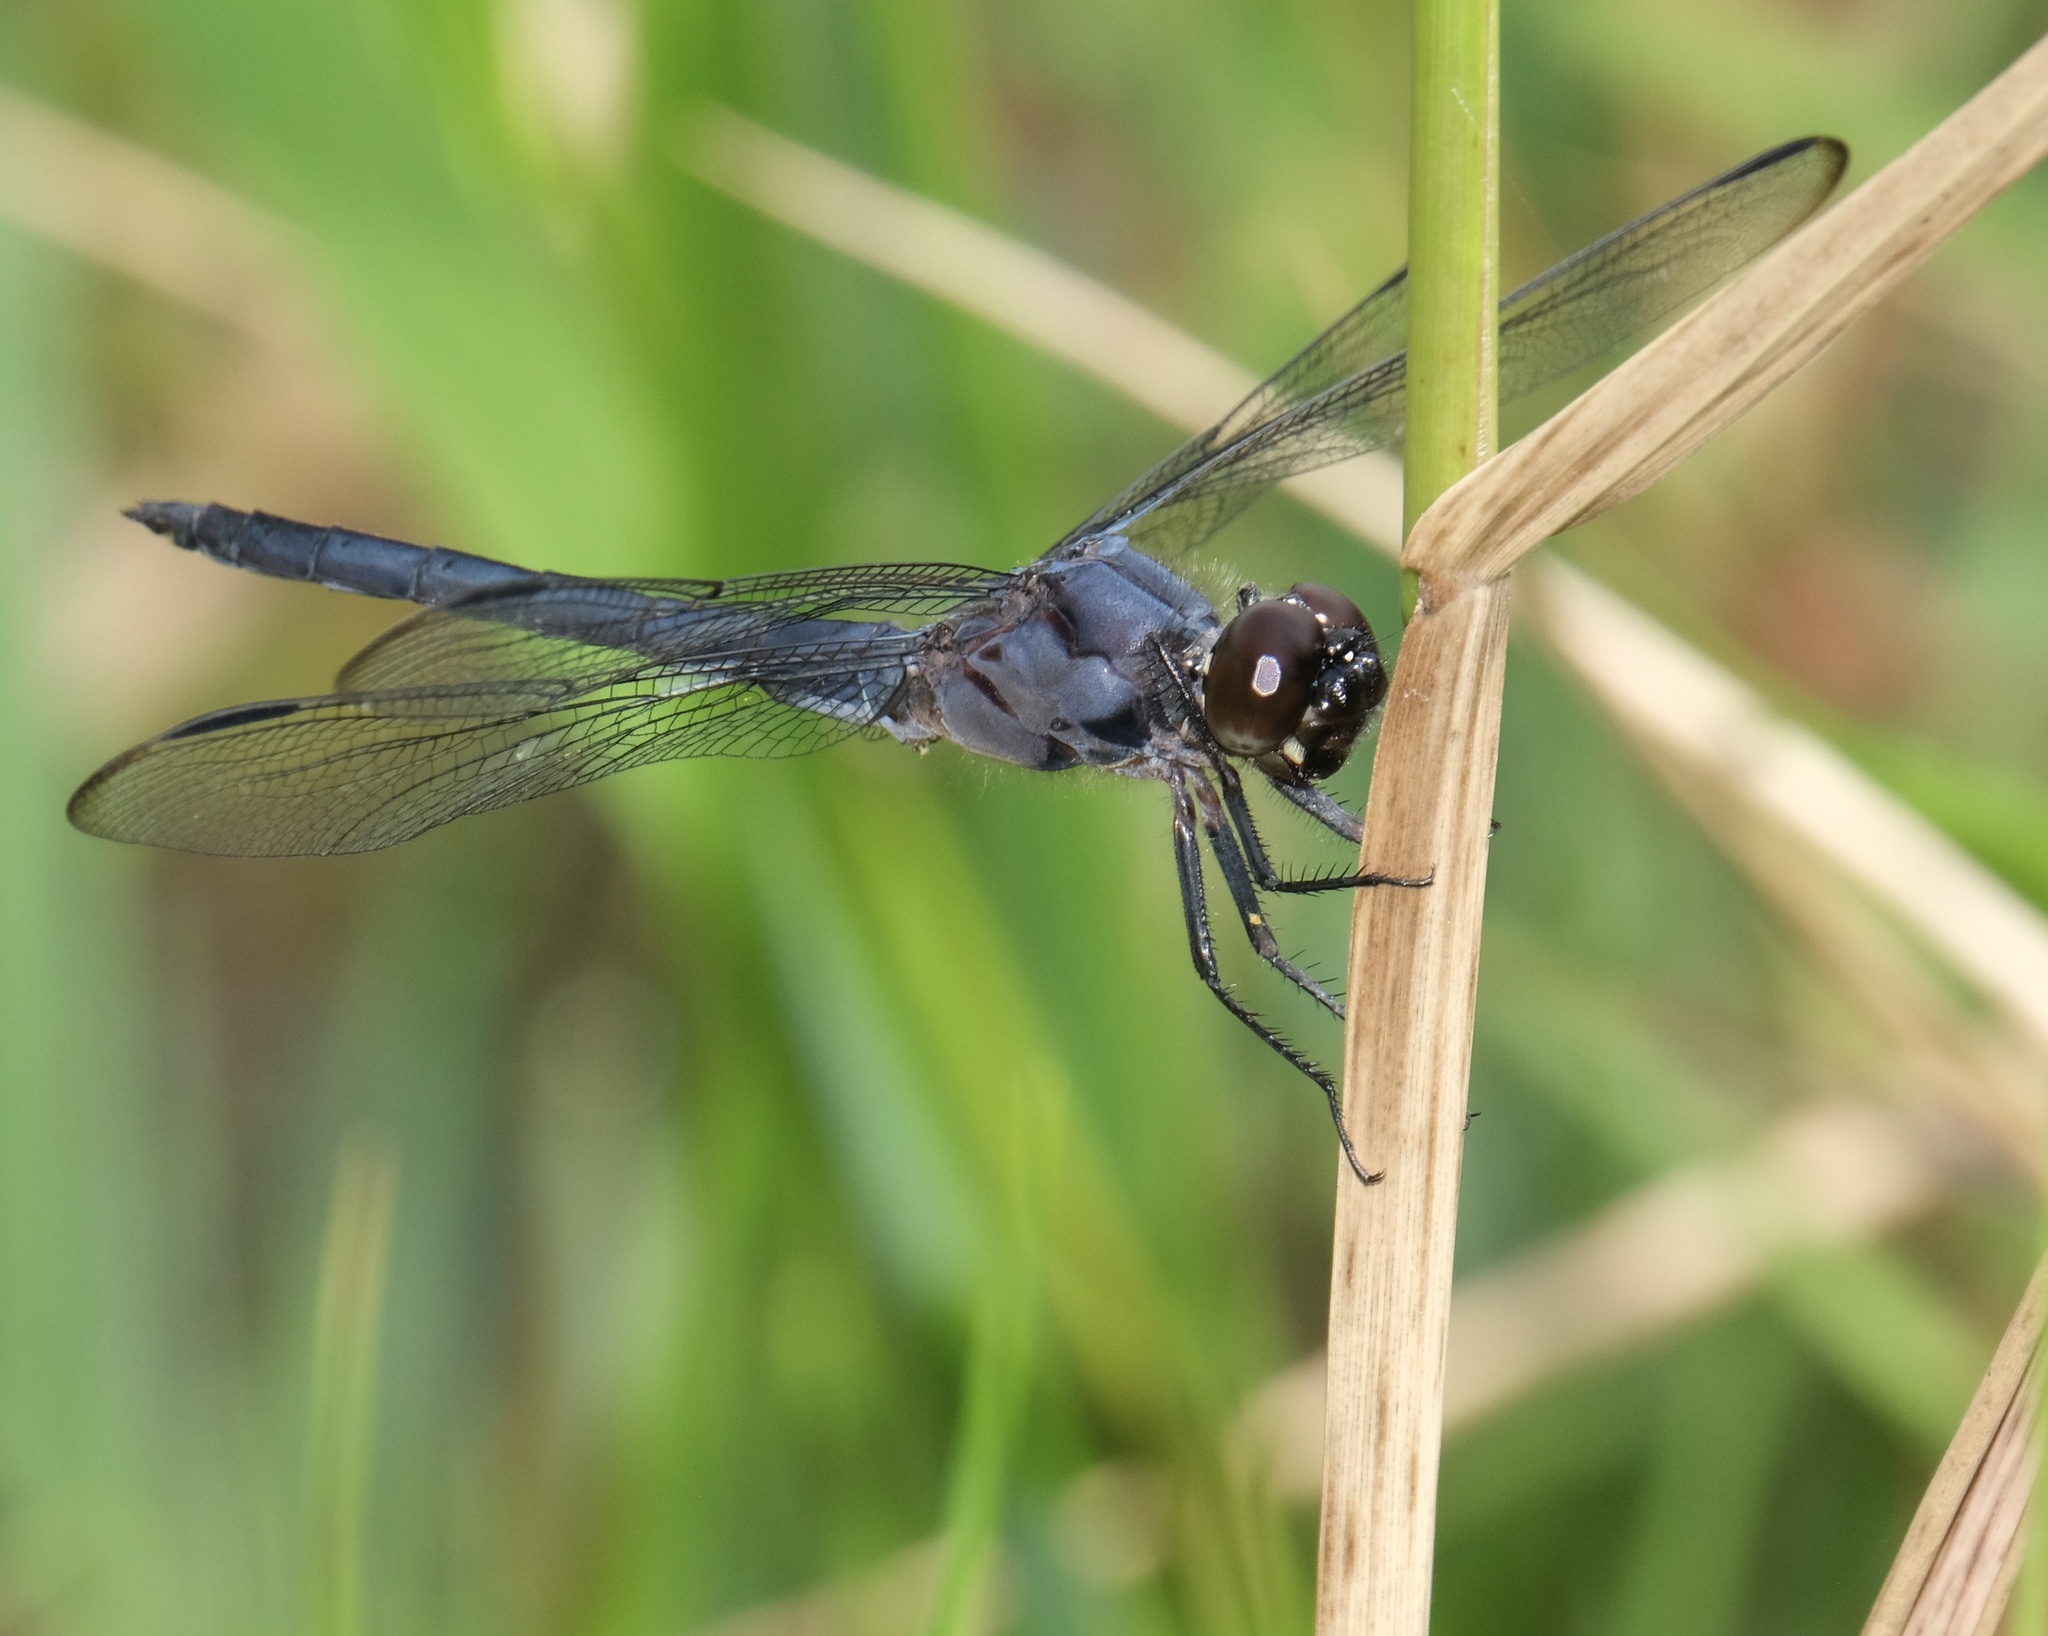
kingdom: Animalia
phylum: Arthropoda
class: Insecta
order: Odonata
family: Libellulidae
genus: Libellula
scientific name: Libellula incesta
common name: Slaty skimmer
